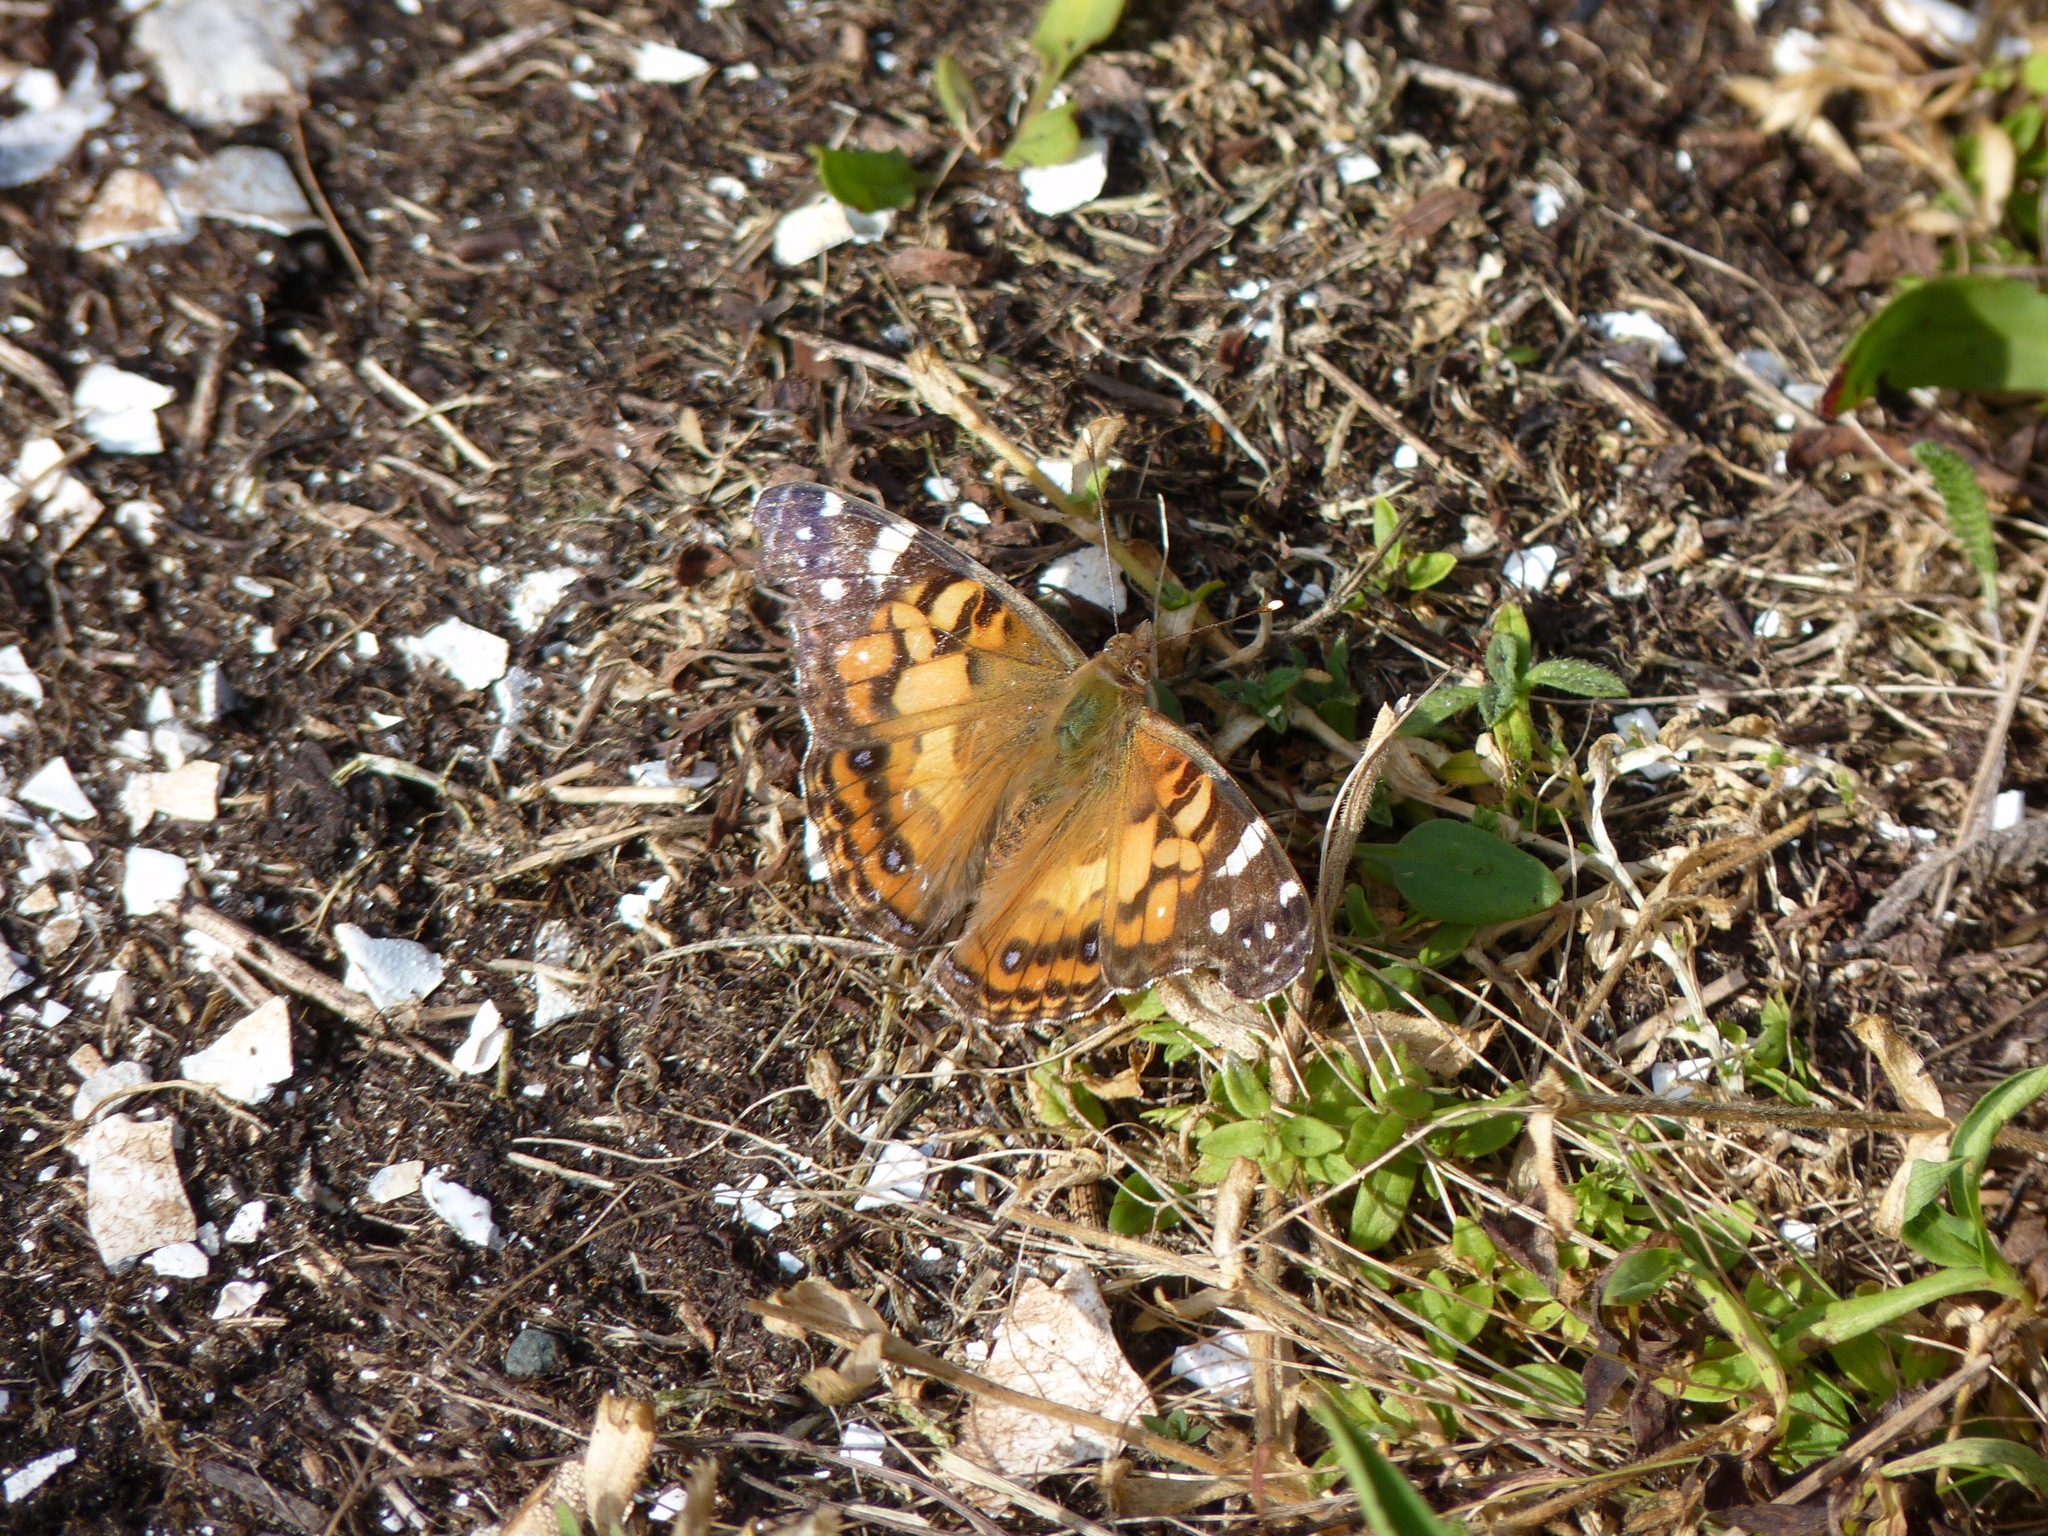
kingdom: Animalia
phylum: Arthropoda
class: Insecta
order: Lepidoptera
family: Nymphalidae
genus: Vanessa
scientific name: Vanessa virginiensis
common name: American lady
